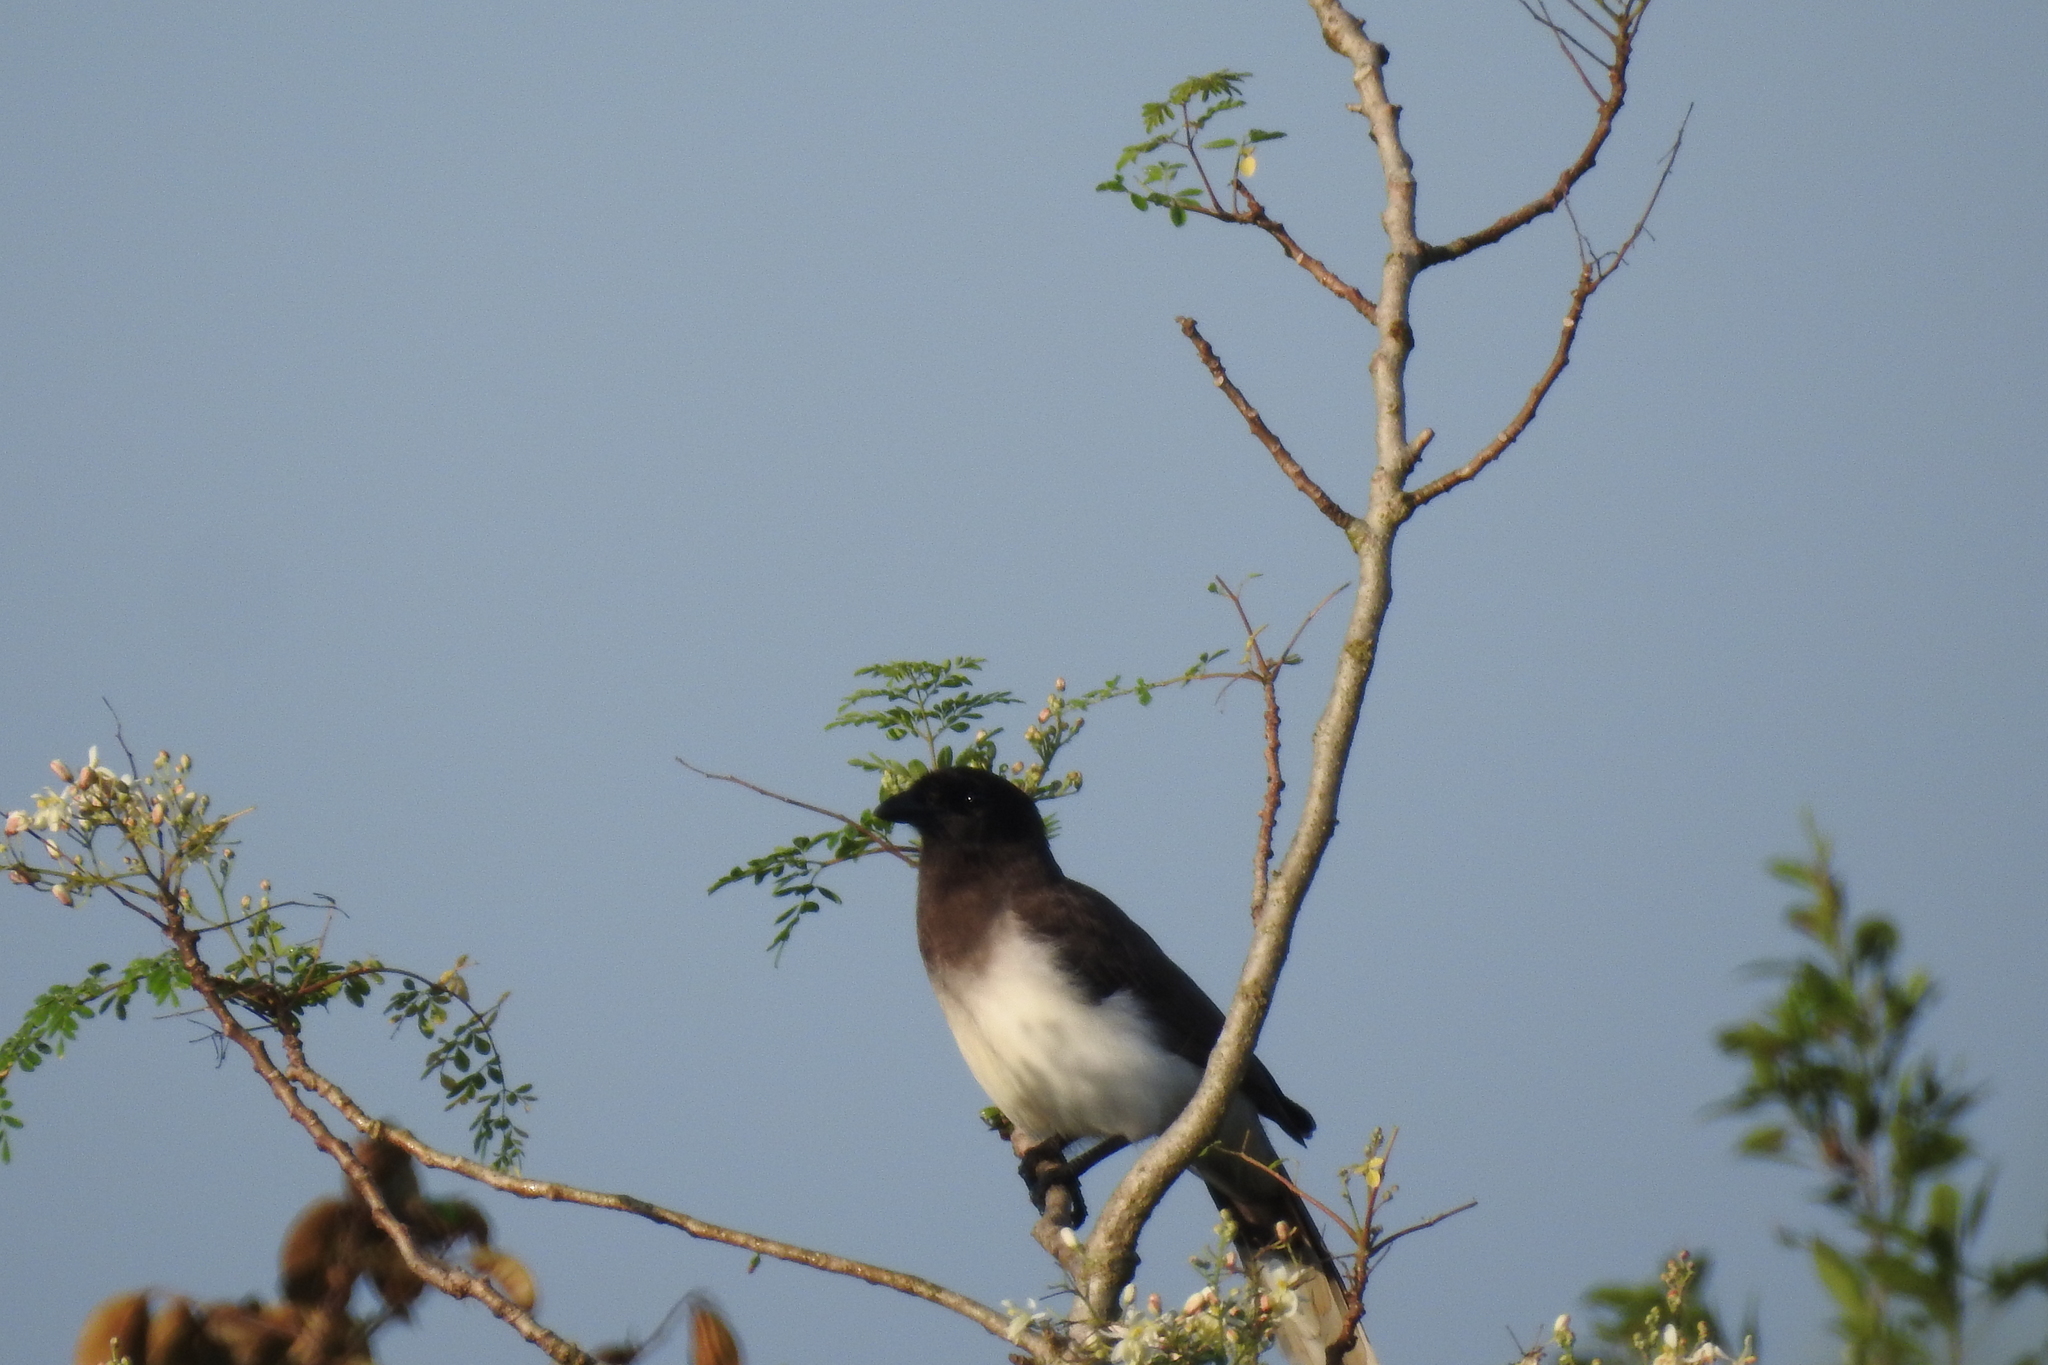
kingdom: Animalia
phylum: Chordata
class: Aves
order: Passeriformes
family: Corvidae
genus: Psilorhinus
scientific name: Psilorhinus morio
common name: Brown jay
